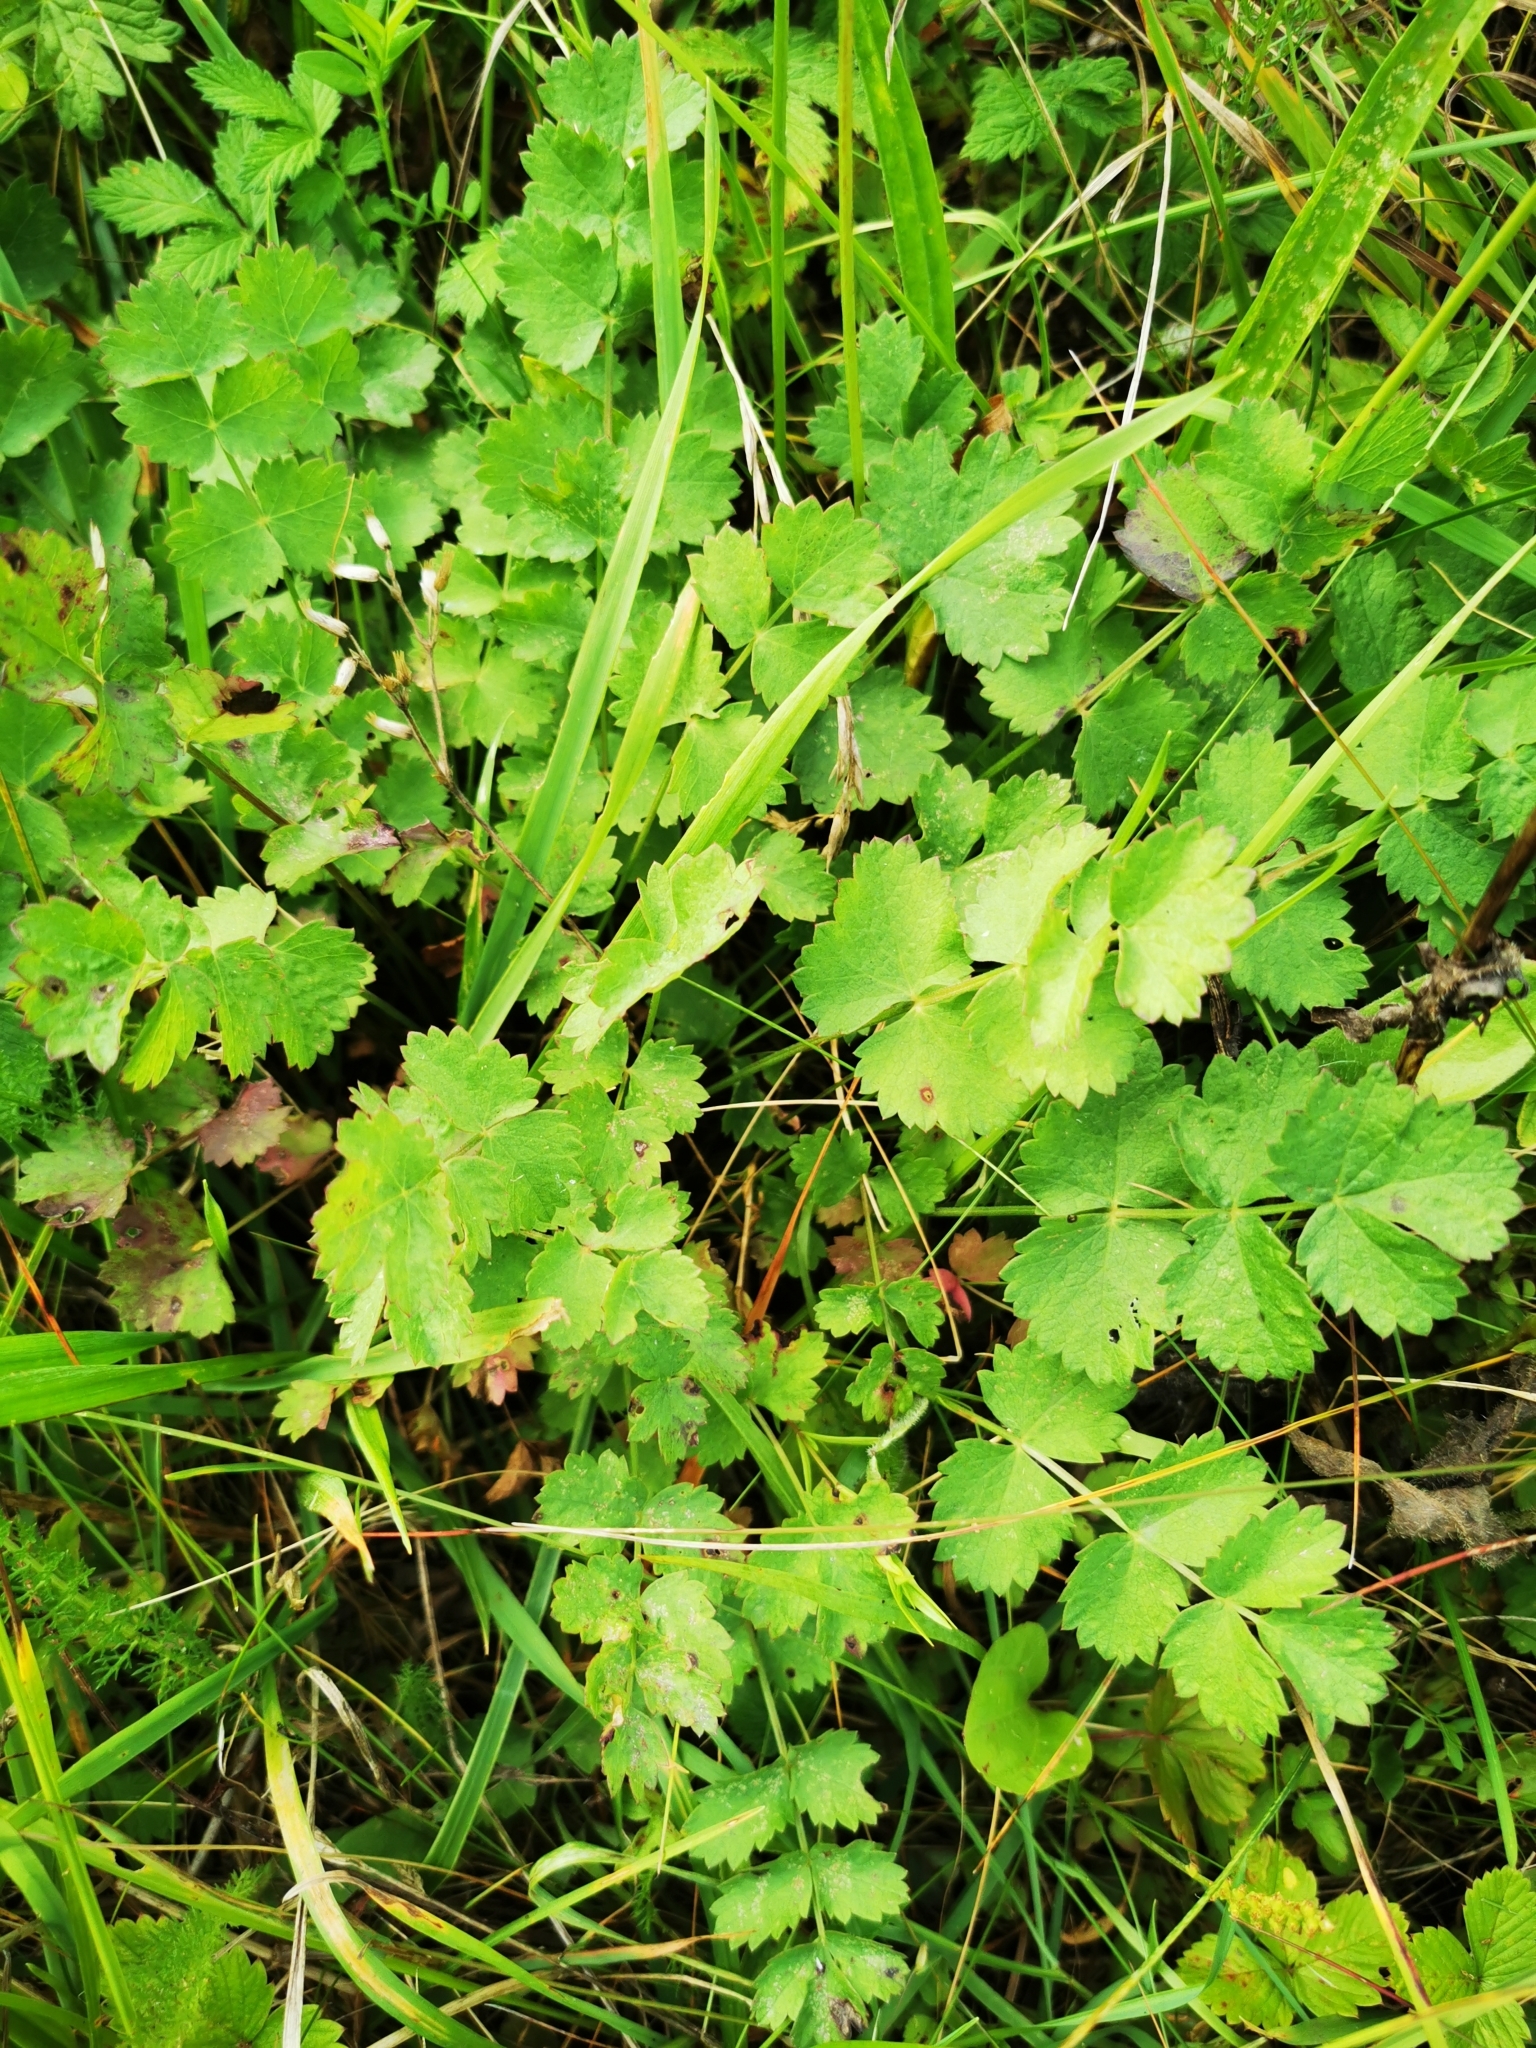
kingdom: Plantae
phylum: Tracheophyta
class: Magnoliopsida
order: Rosales
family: Rosaceae
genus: Poterium
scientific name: Poterium sanguisorba
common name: Salad burnet
